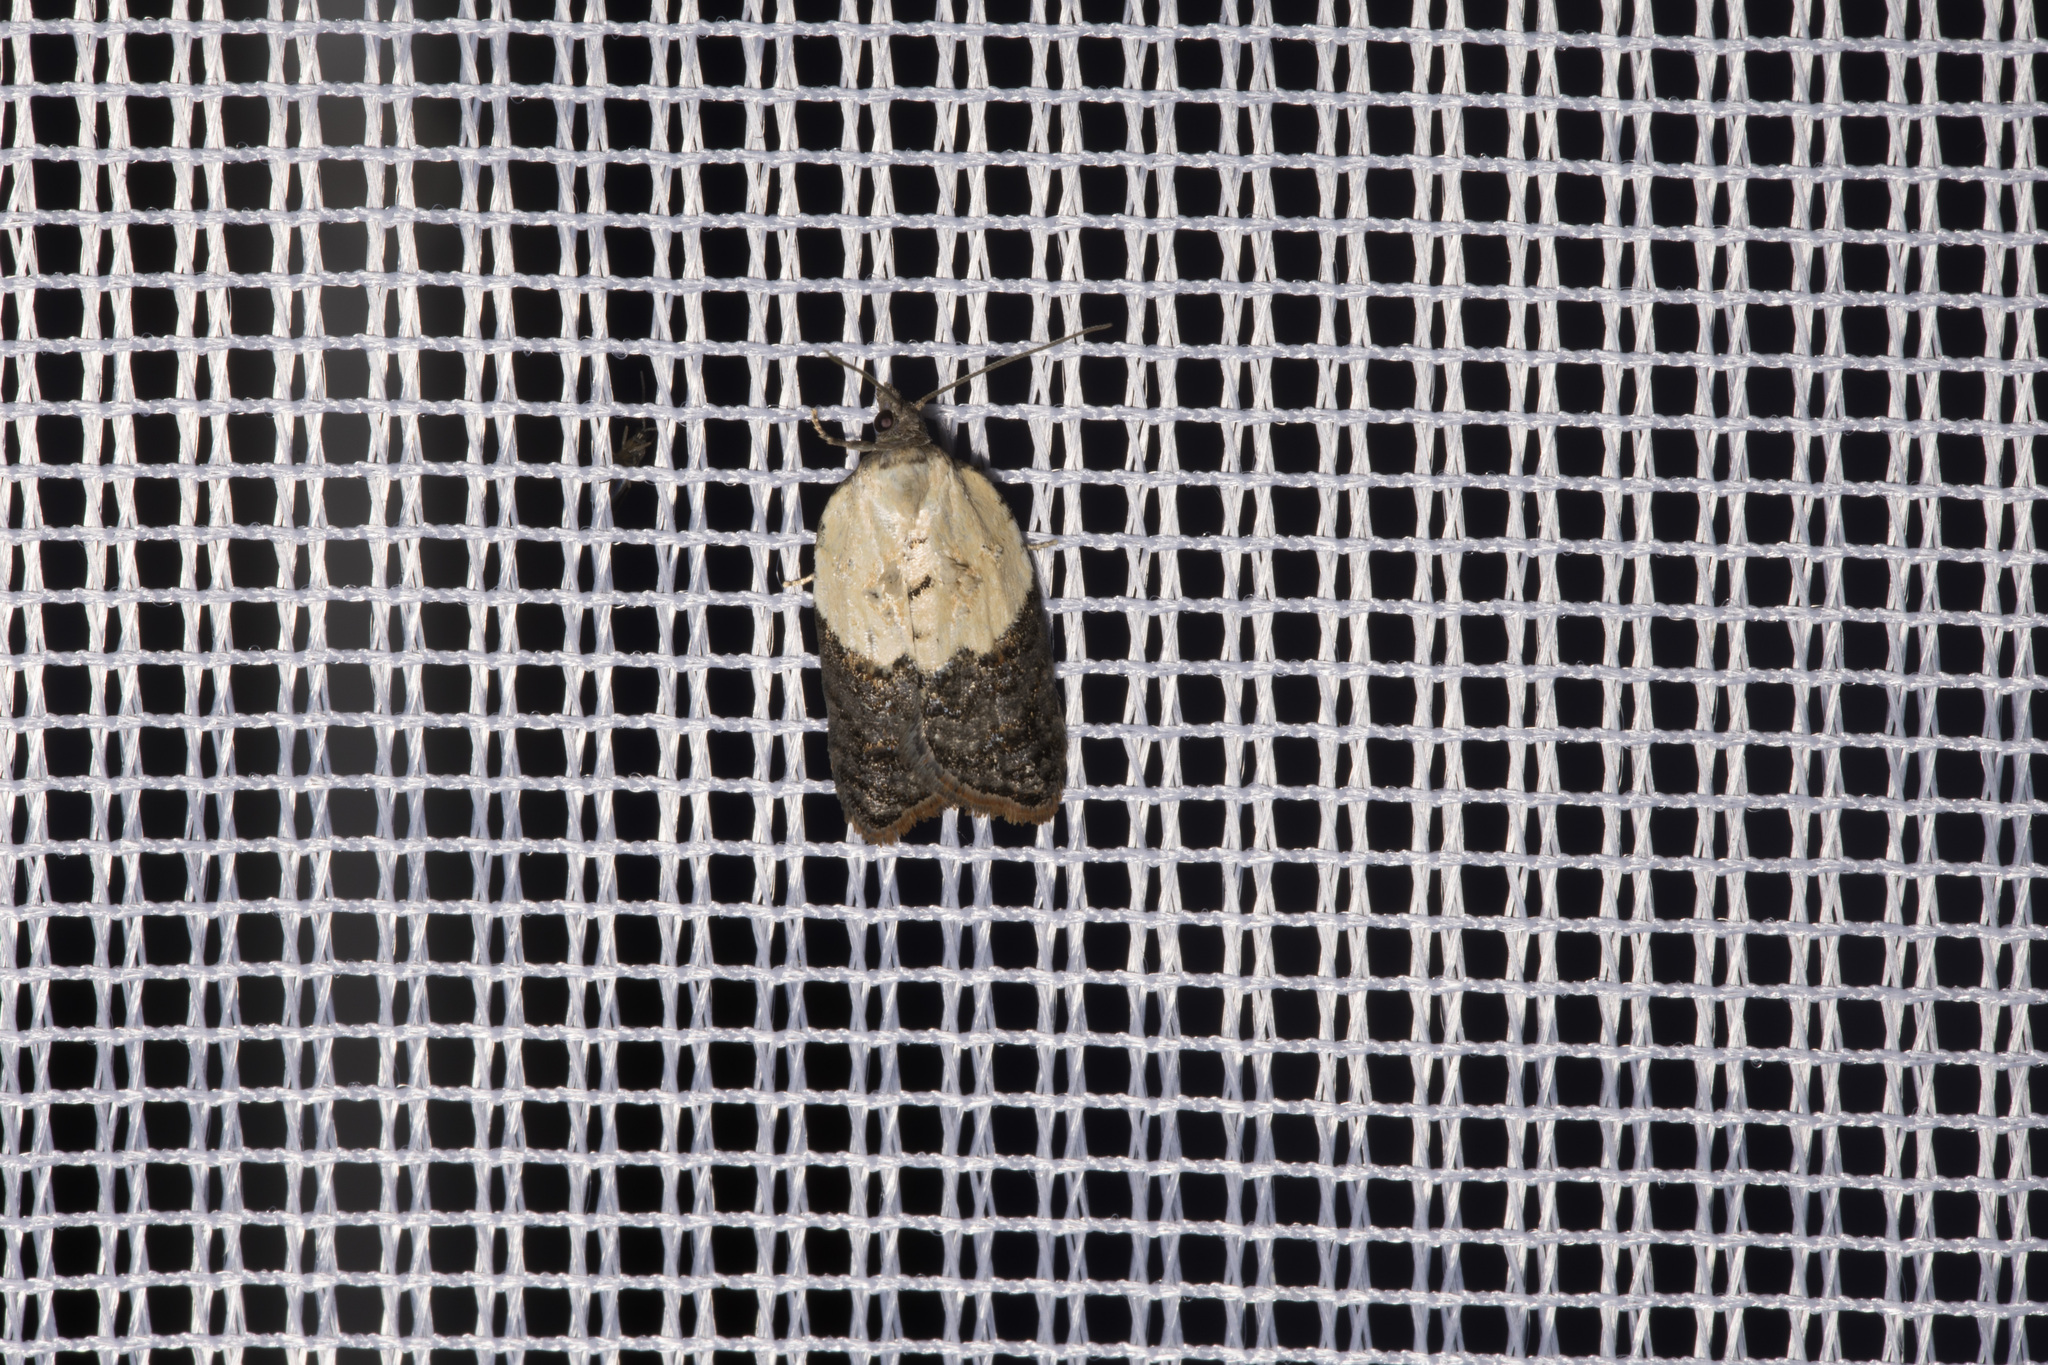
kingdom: Animalia
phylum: Arthropoda
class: Insecta
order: Lepidoptera
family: Tortricidae
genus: Acleris
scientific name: Acleris variegana
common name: Garden rose tortrix
